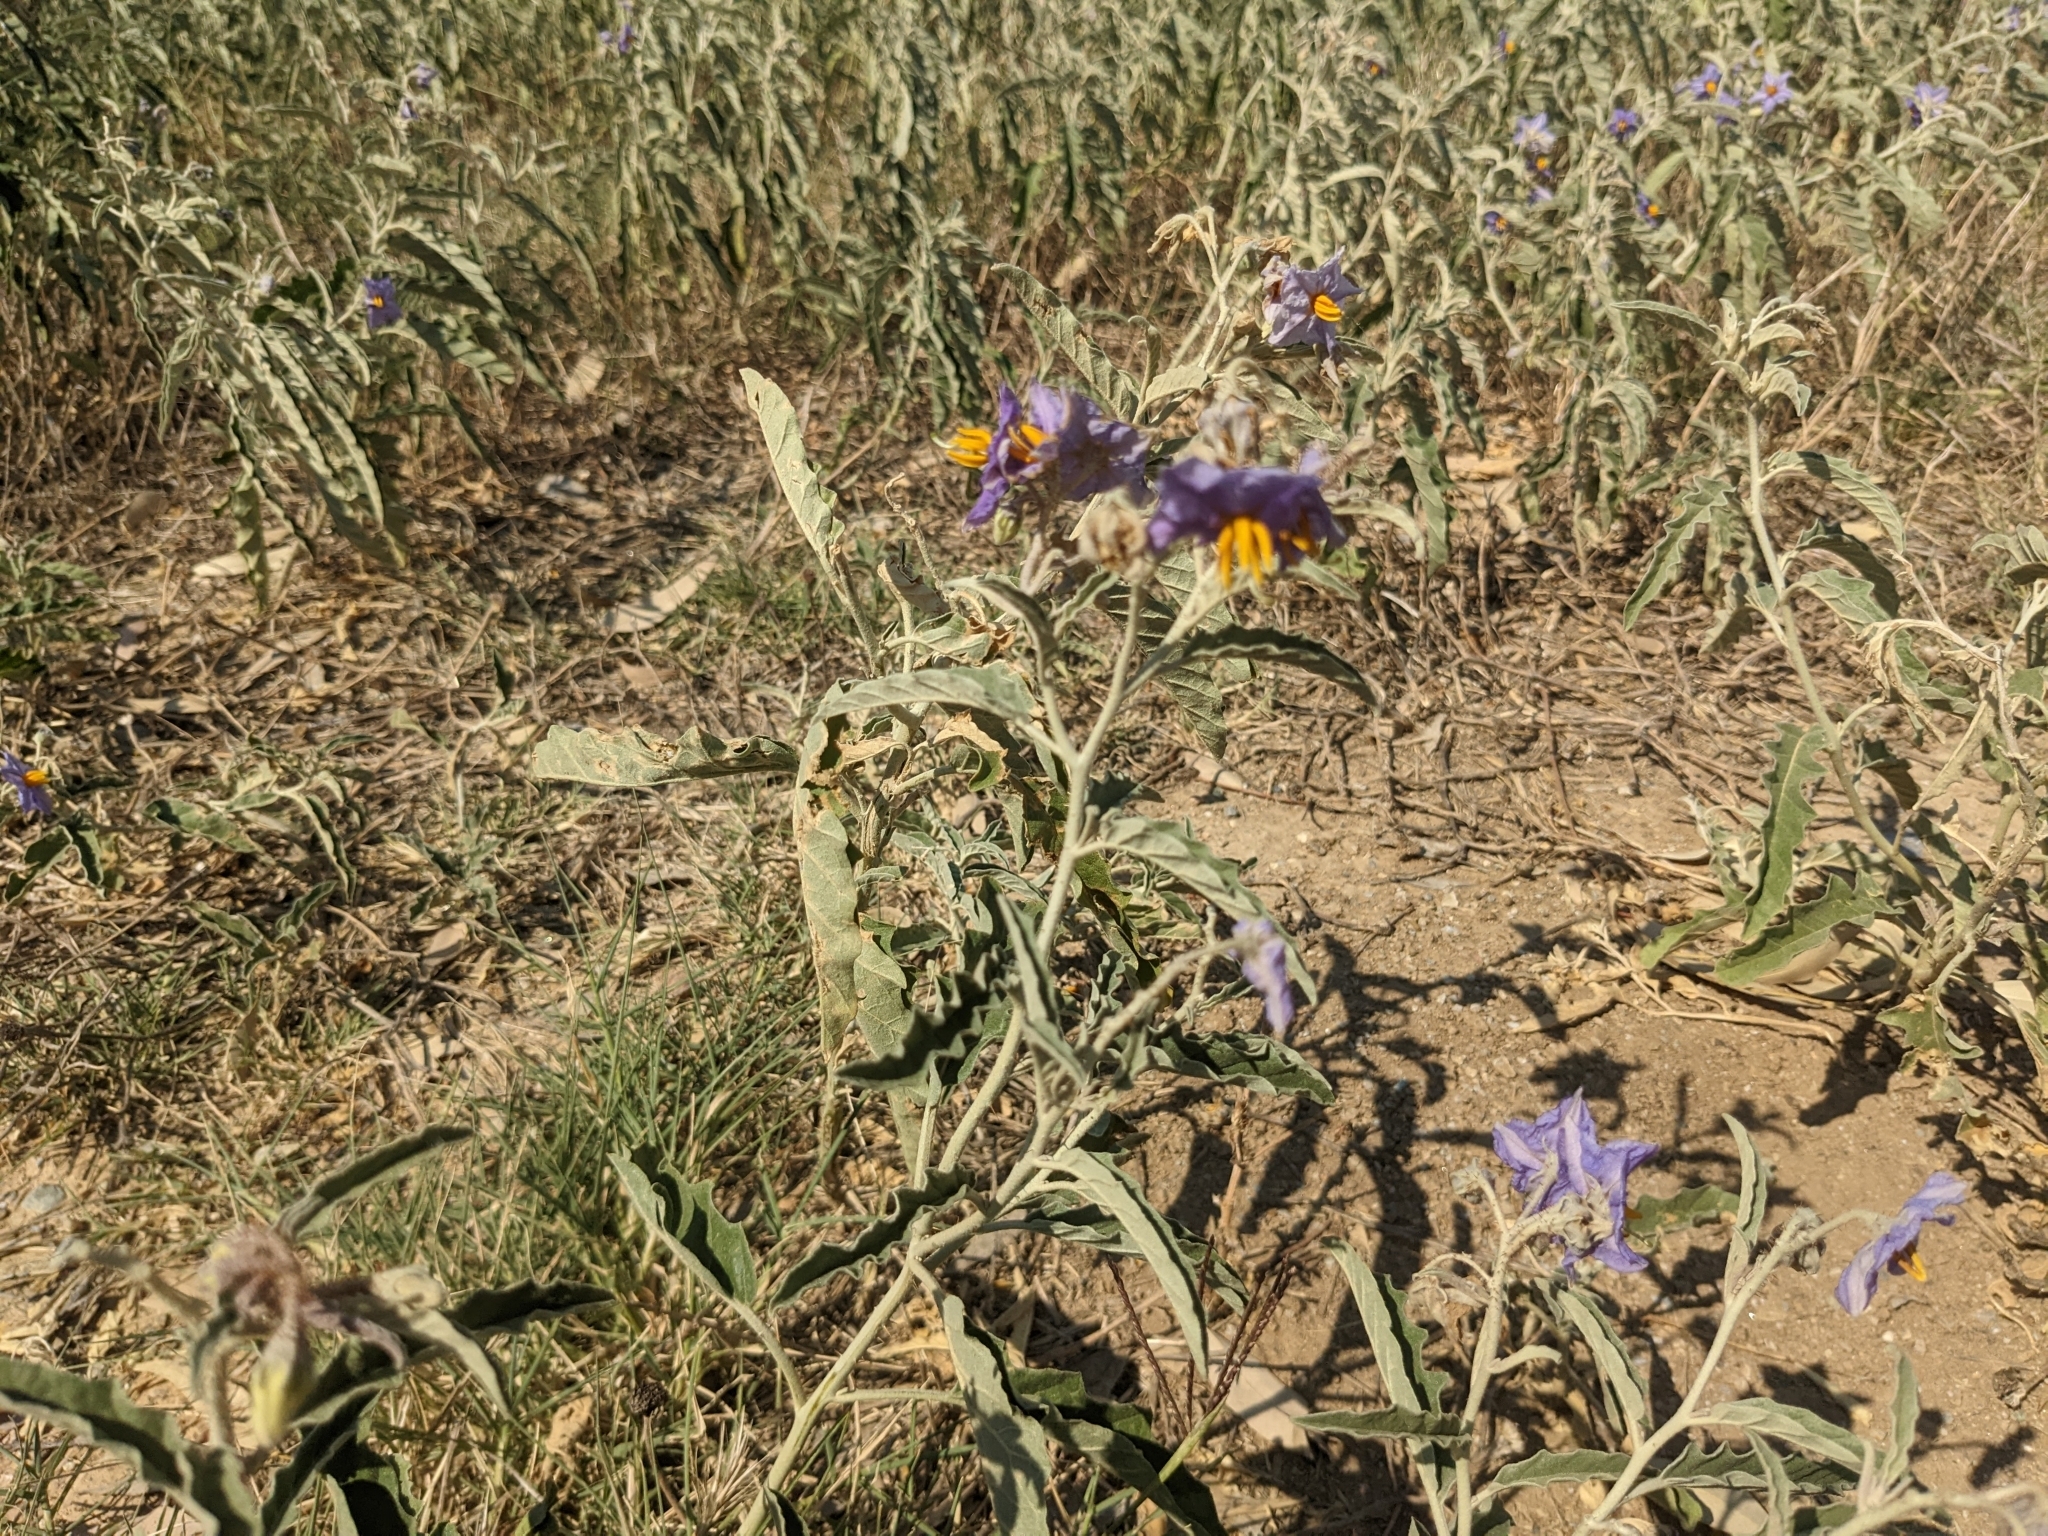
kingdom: Plantae
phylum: Tracheophyta
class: Magnoliopsida
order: Solanales
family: Solanaceae
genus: Solanum
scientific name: Solanum elaeagnifolium
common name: Silverleaf nightshade
